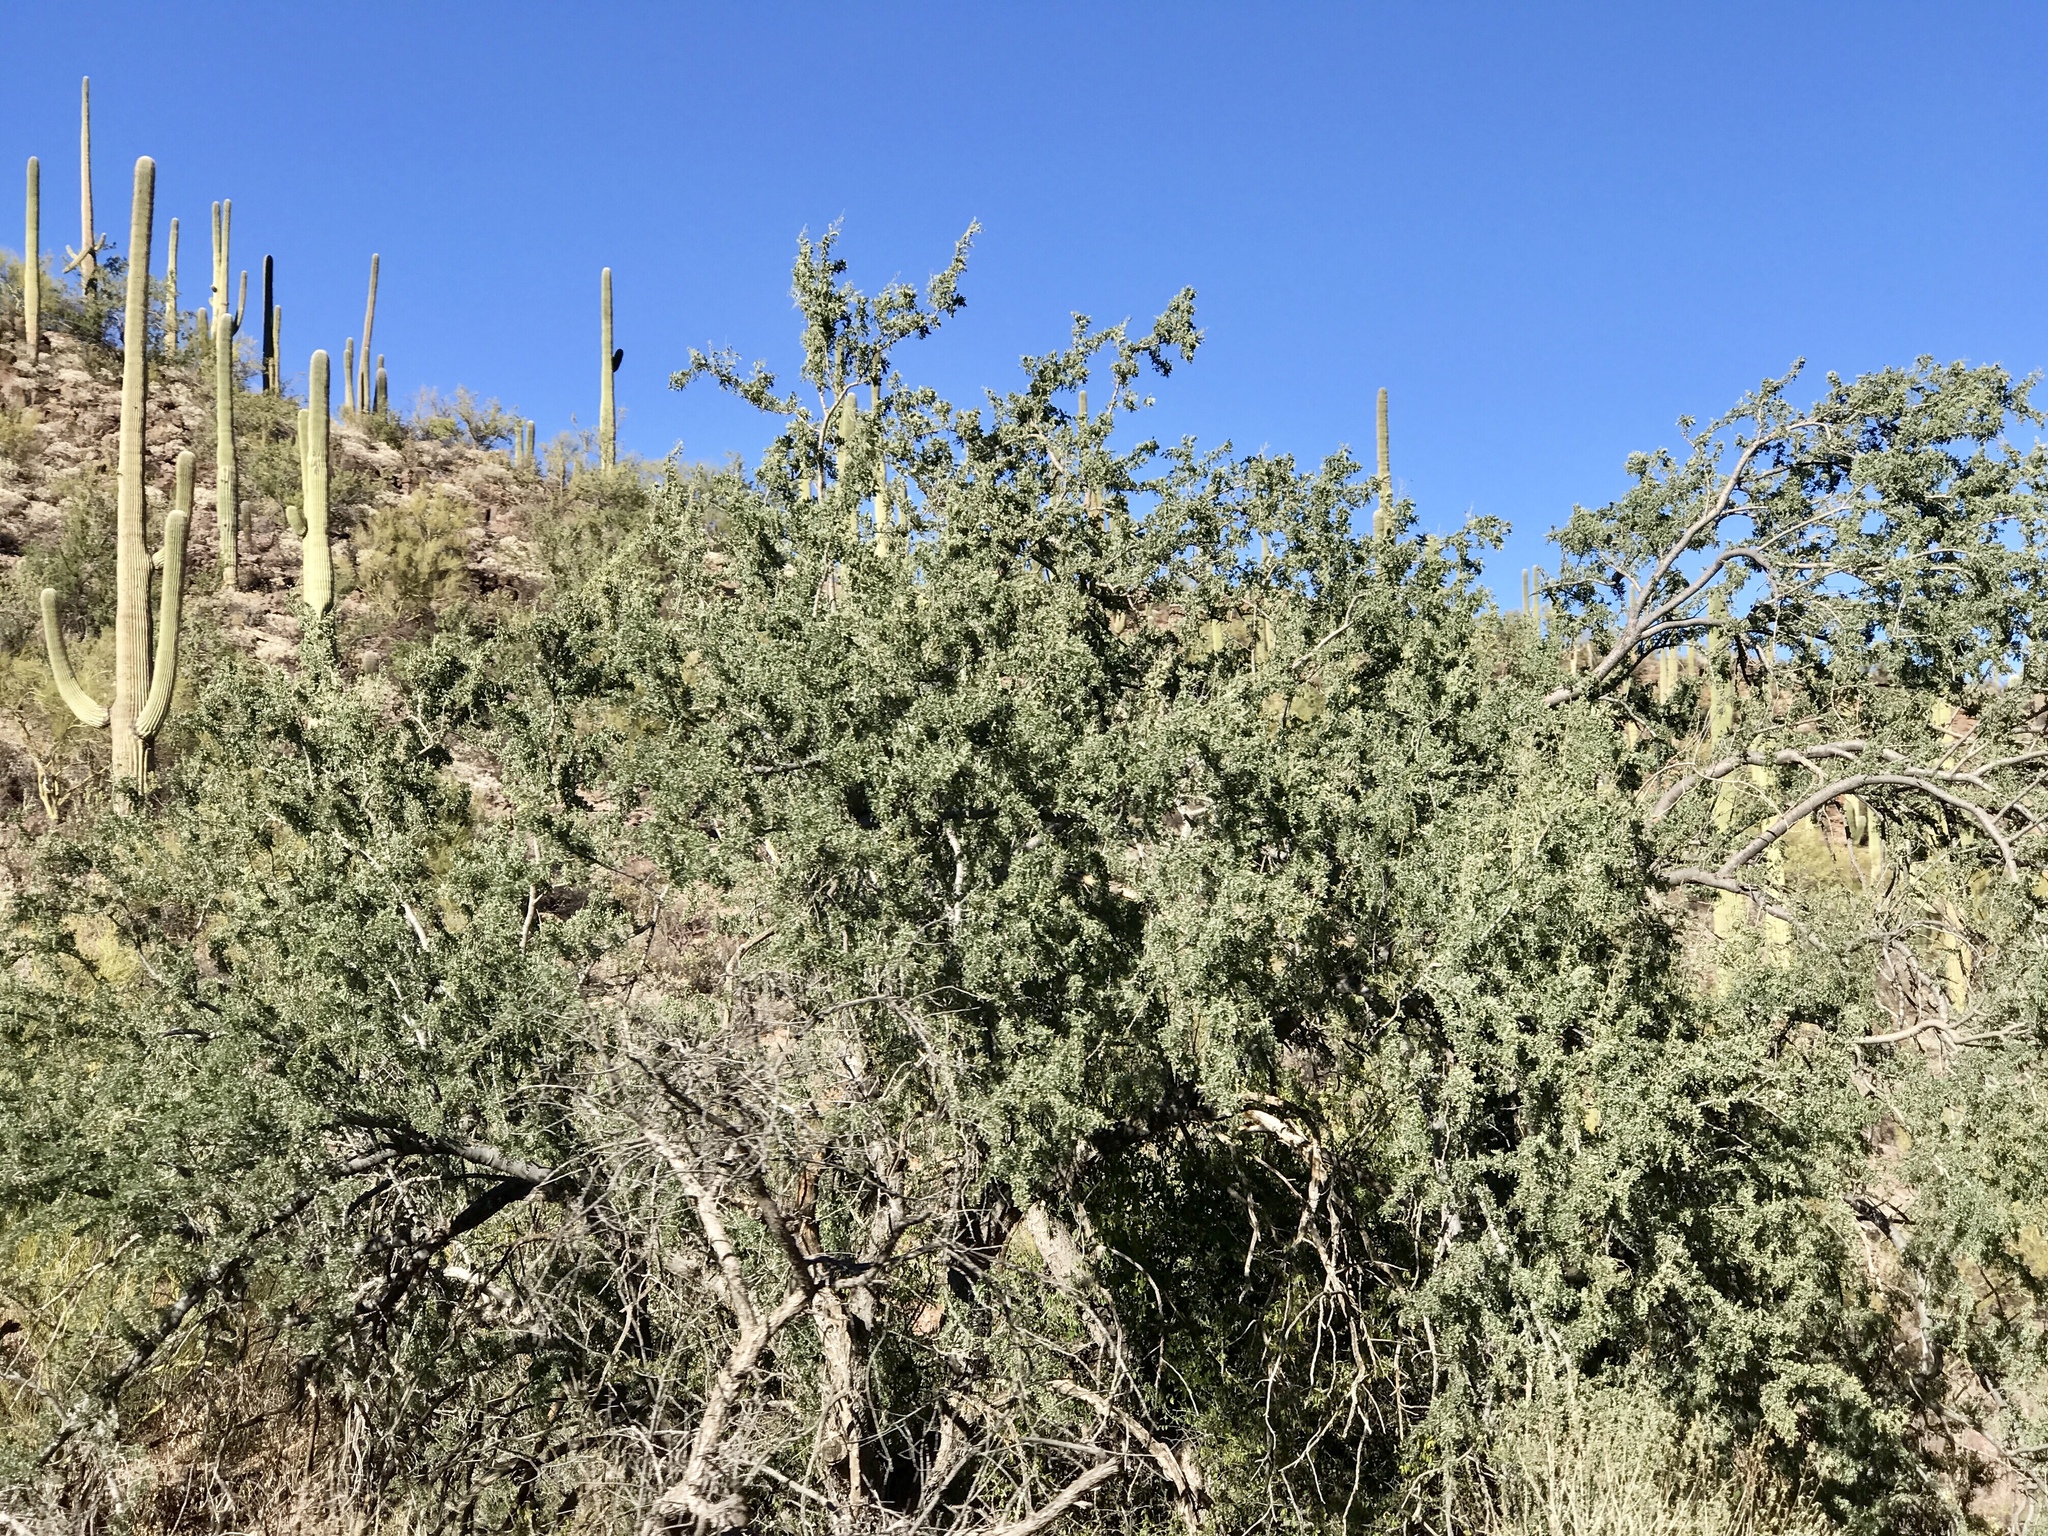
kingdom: Plantae
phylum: Tracheophyta
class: Magnoliopsida
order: Fabales
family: Fabaceae
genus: Olneya
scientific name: Olneya tesota
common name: Desert ironwood
